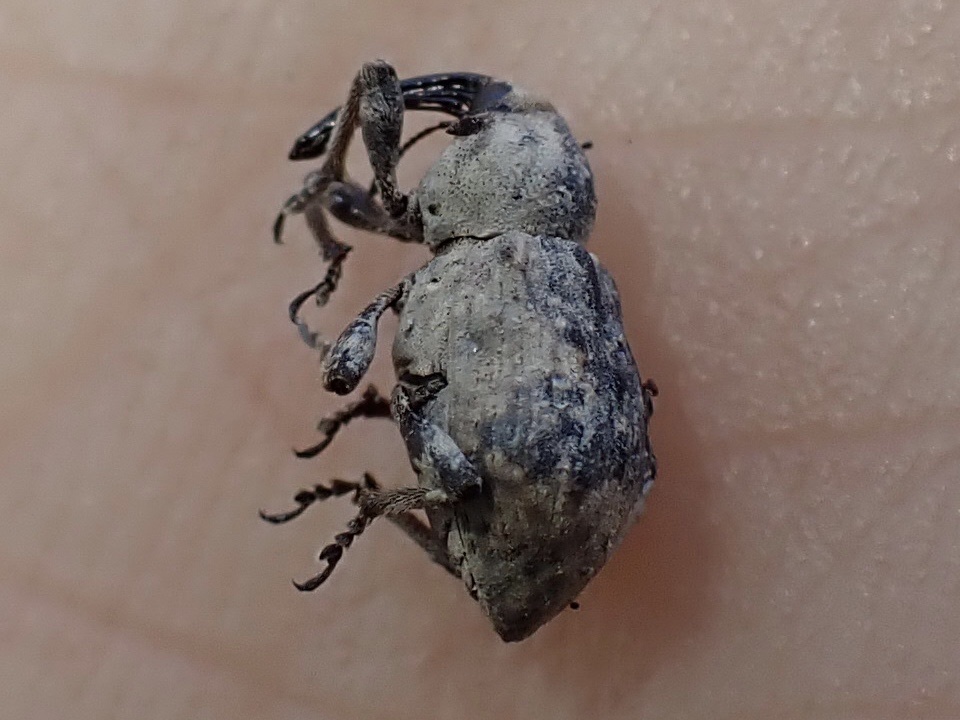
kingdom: Animalia
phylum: Arthropoda
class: Insecta
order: Coleoptera
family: Brachyceridae
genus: Grypus
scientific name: Grypus equiseti
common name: Horsetail weevil
